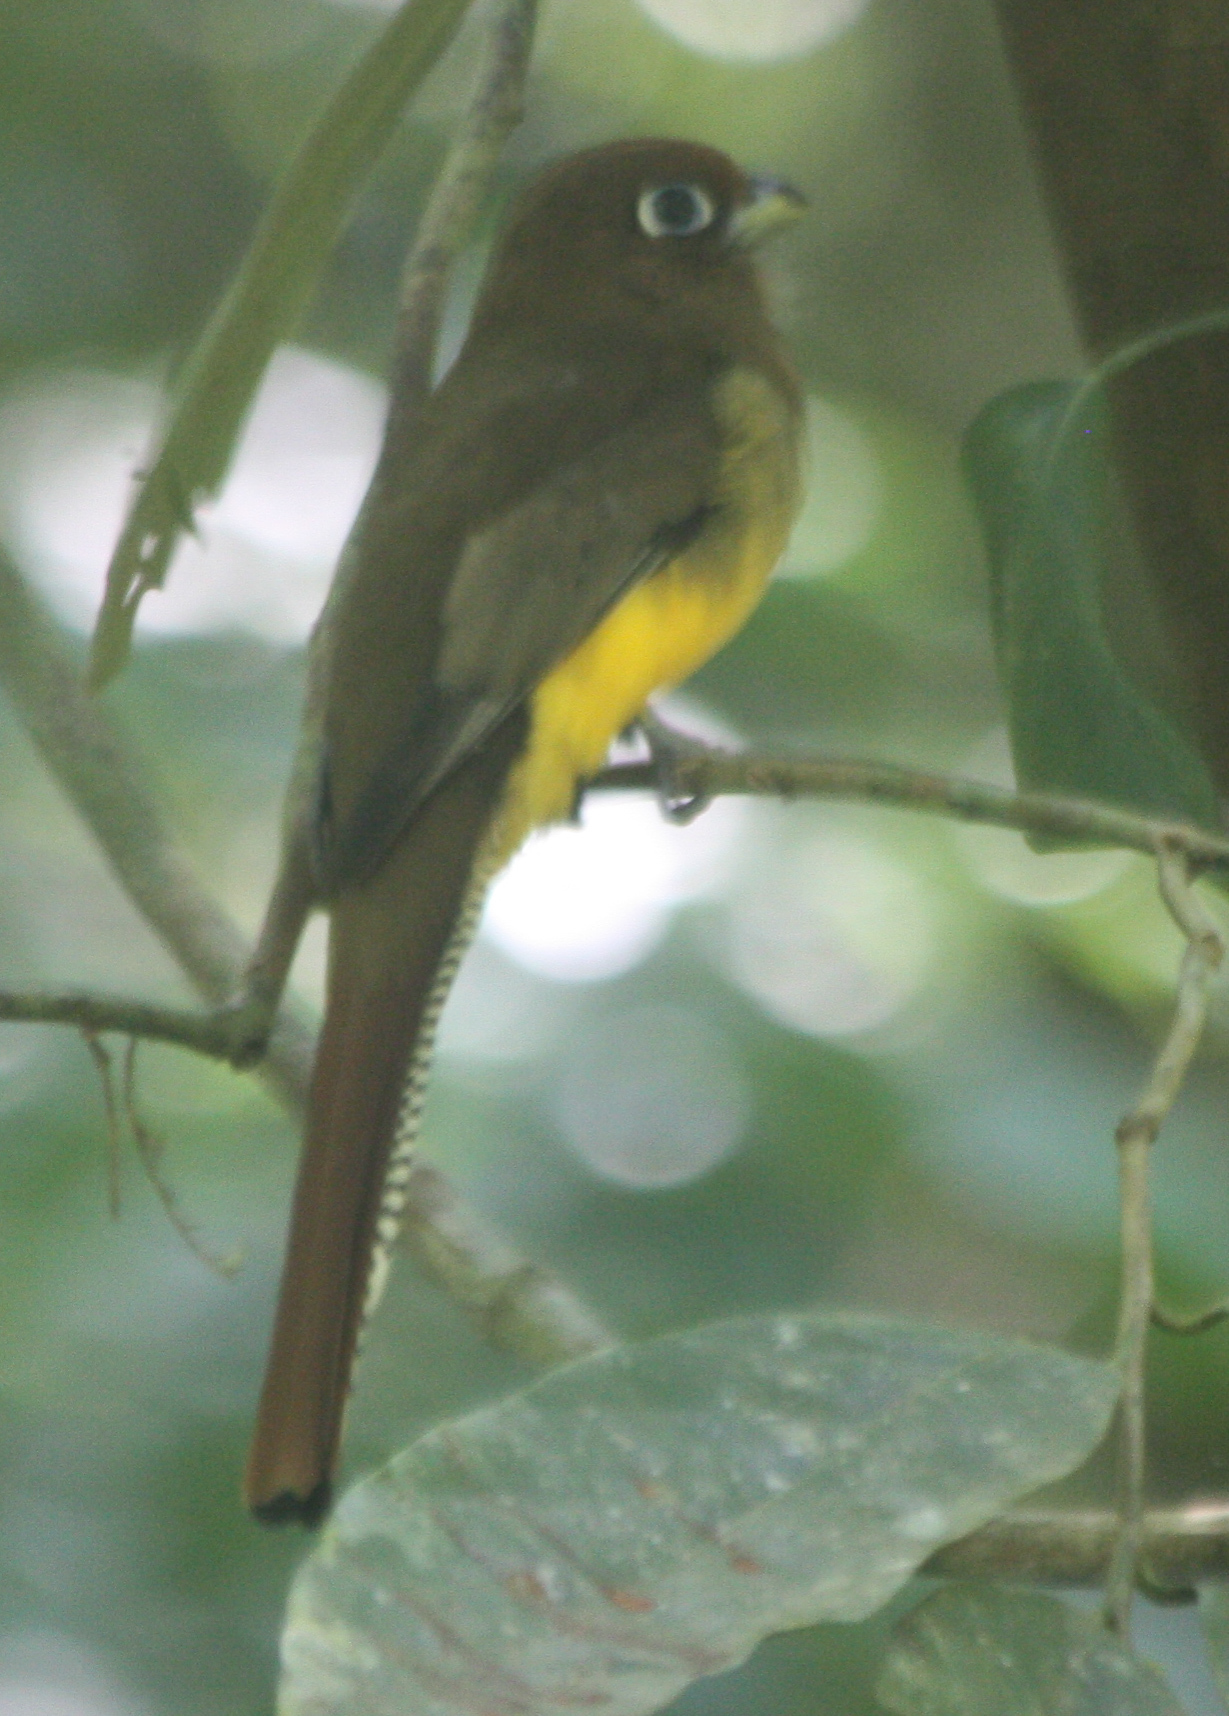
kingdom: Animalia
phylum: Chordata
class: Aves
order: Trogoniformes
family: Trogonidae
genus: Trogon
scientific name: Trogon rufus
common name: Black-throated trogon
